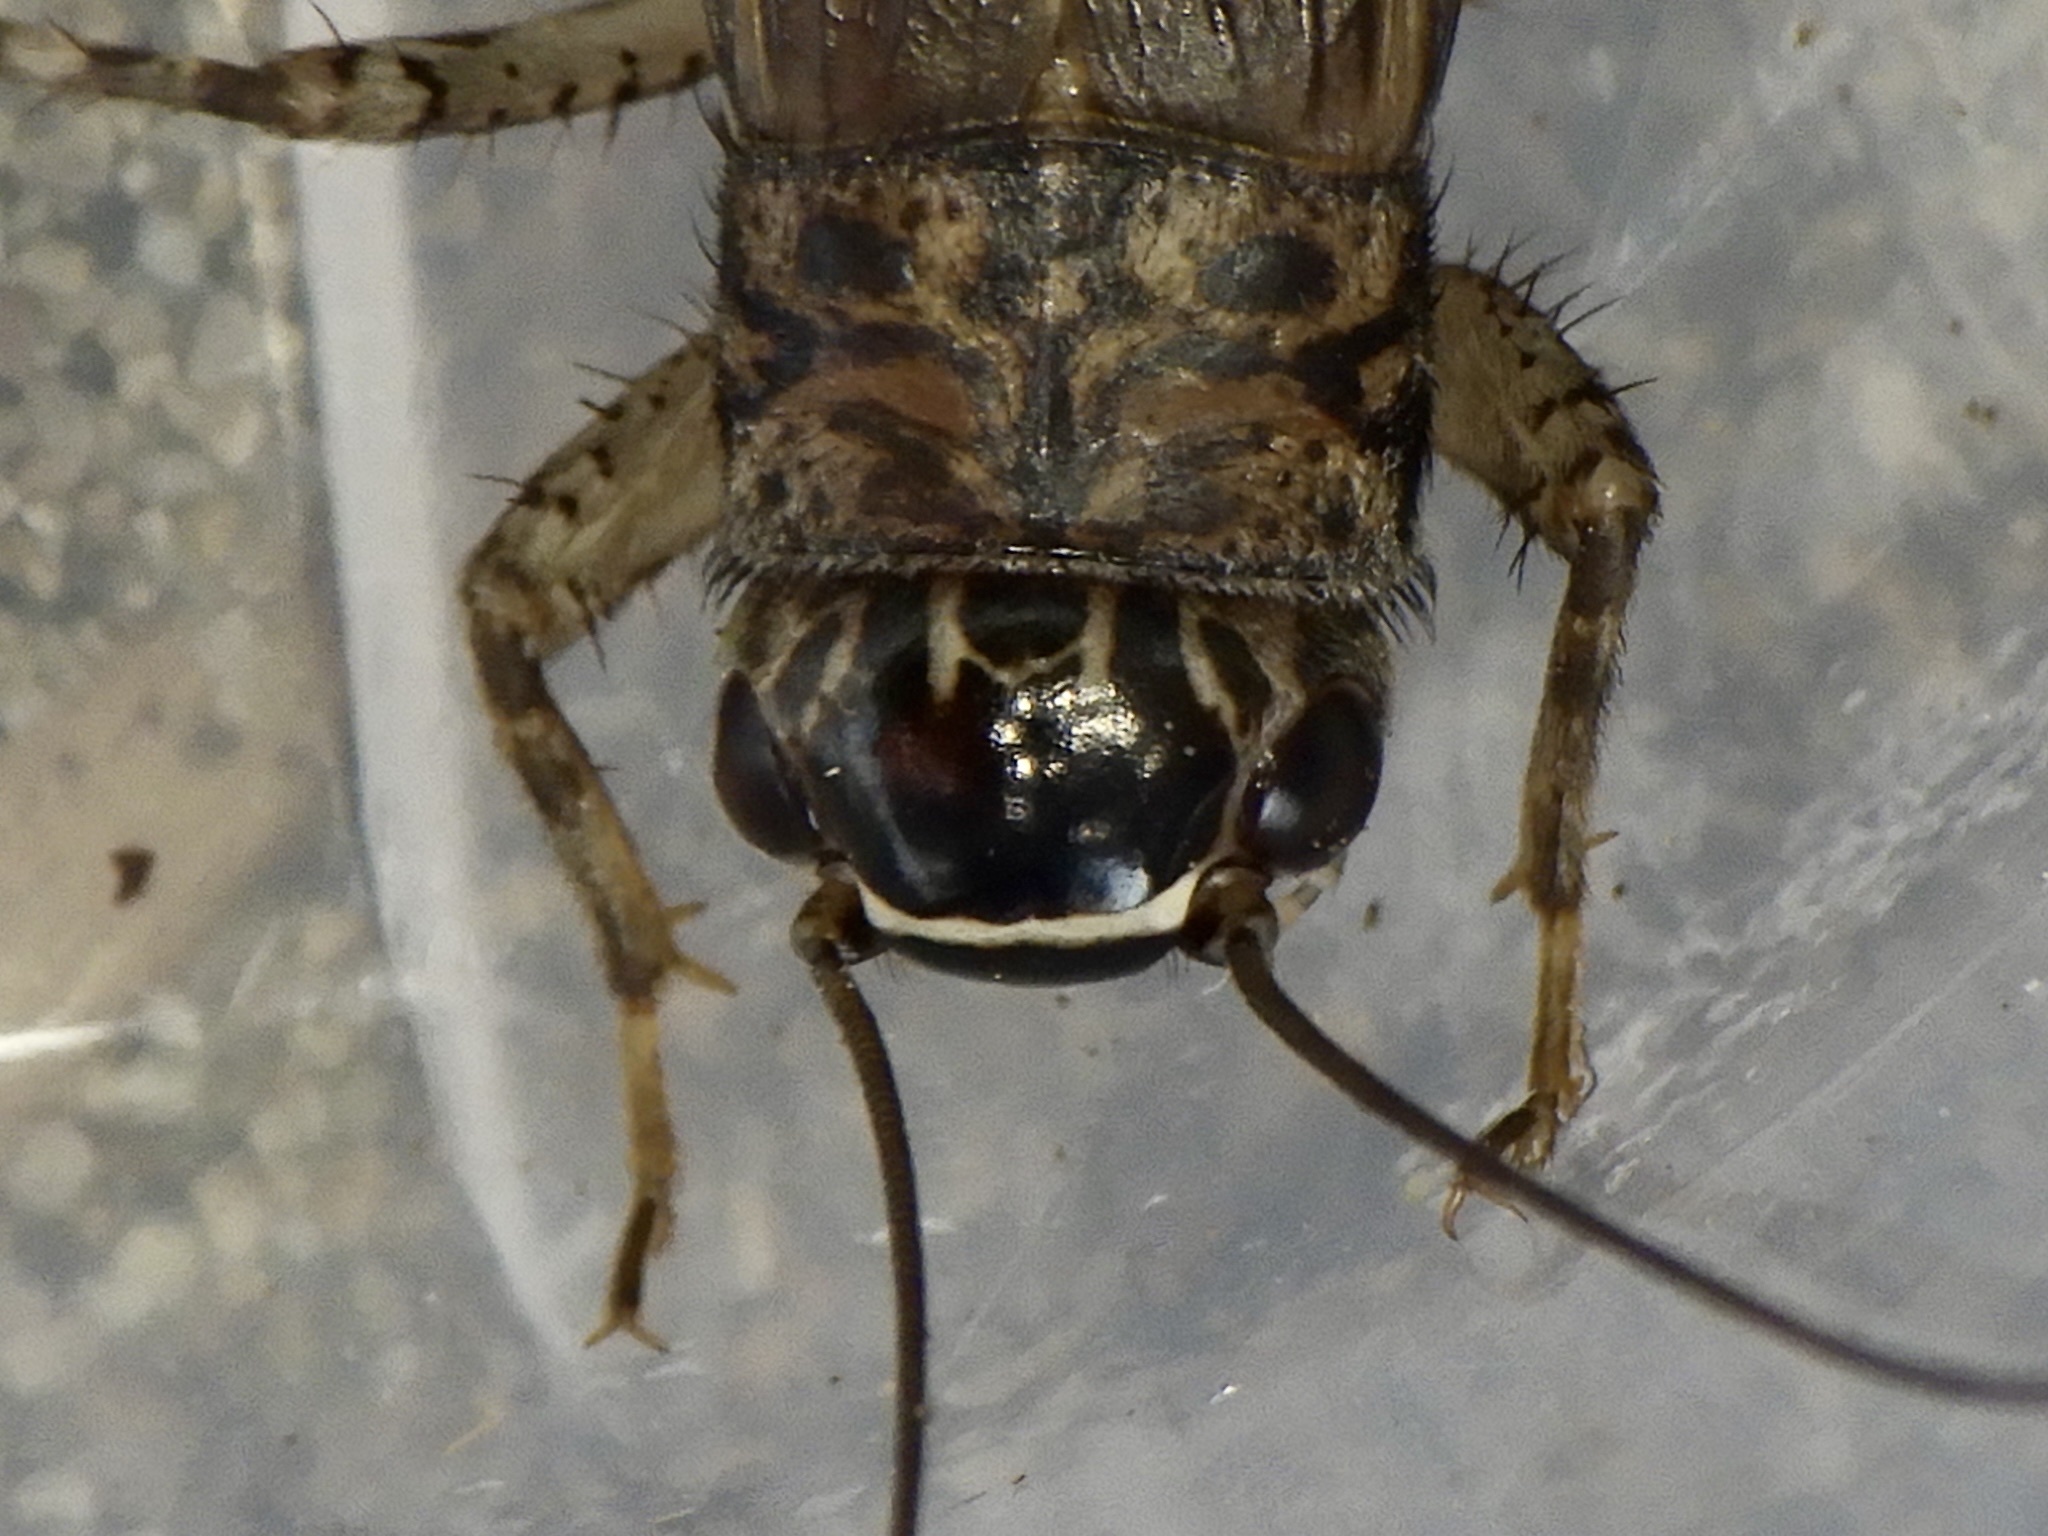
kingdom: Animalia
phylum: Arthropoda
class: Insecta
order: Orthoptera
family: Gryllidae
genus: Loxoblemmus
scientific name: Loxoblemmus doenitzi
